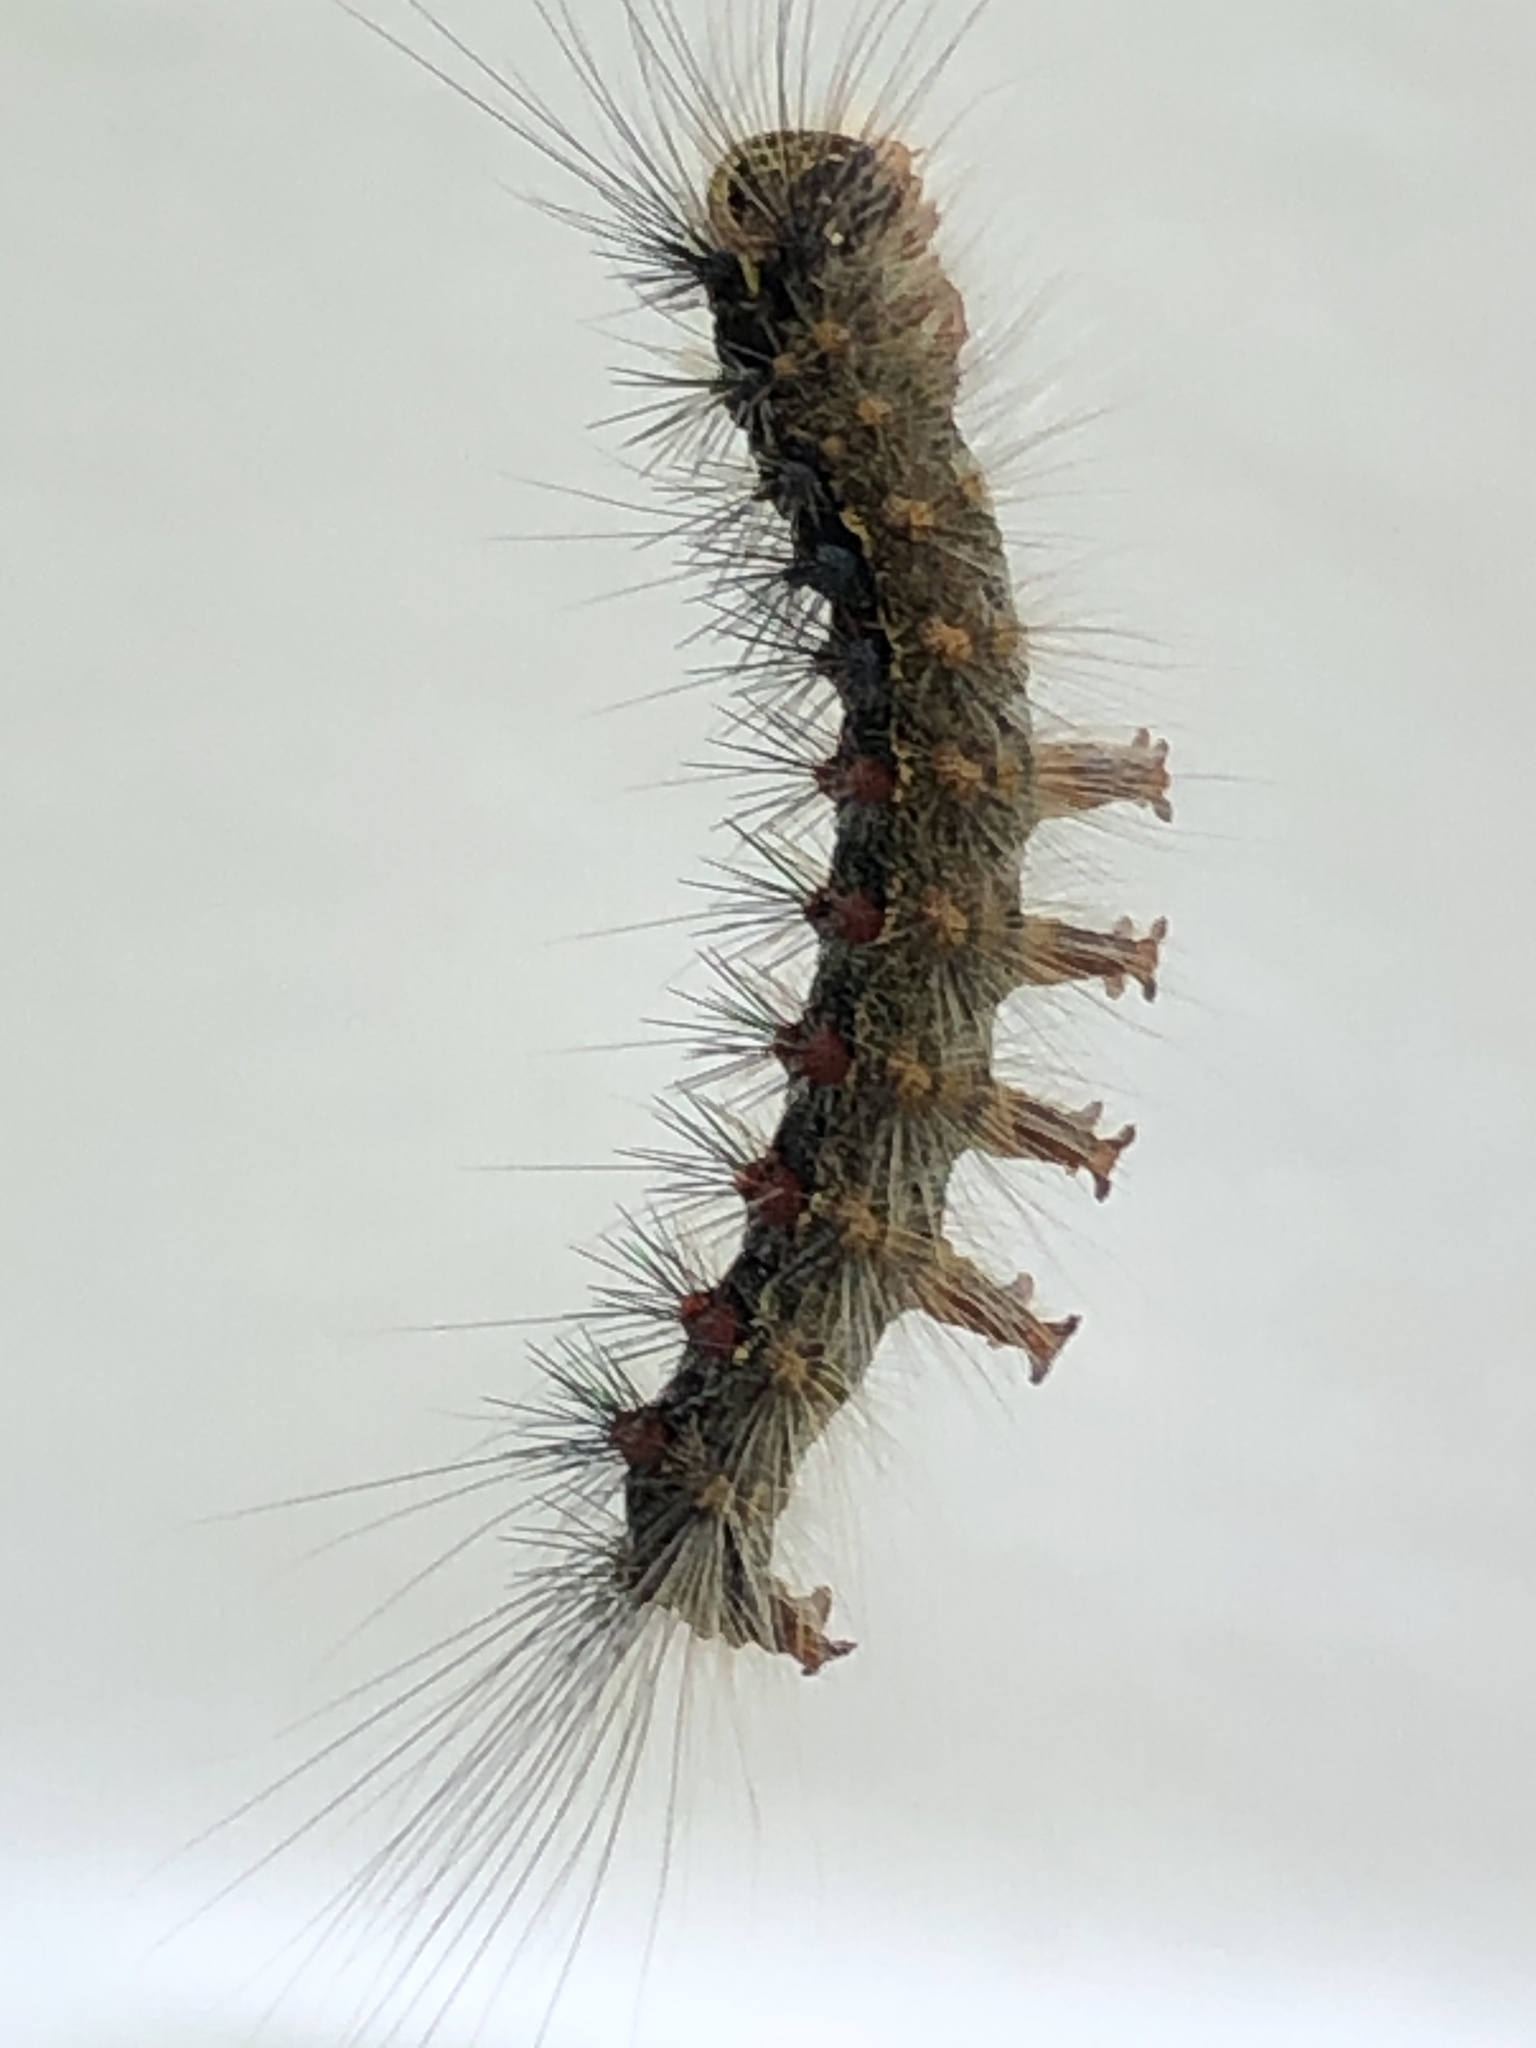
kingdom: Animalia
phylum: Arthropoda
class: Insecta
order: Lepidoptera
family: Erebidae
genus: Lymantria
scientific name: Lymantria dispar
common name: Gypsy moth
